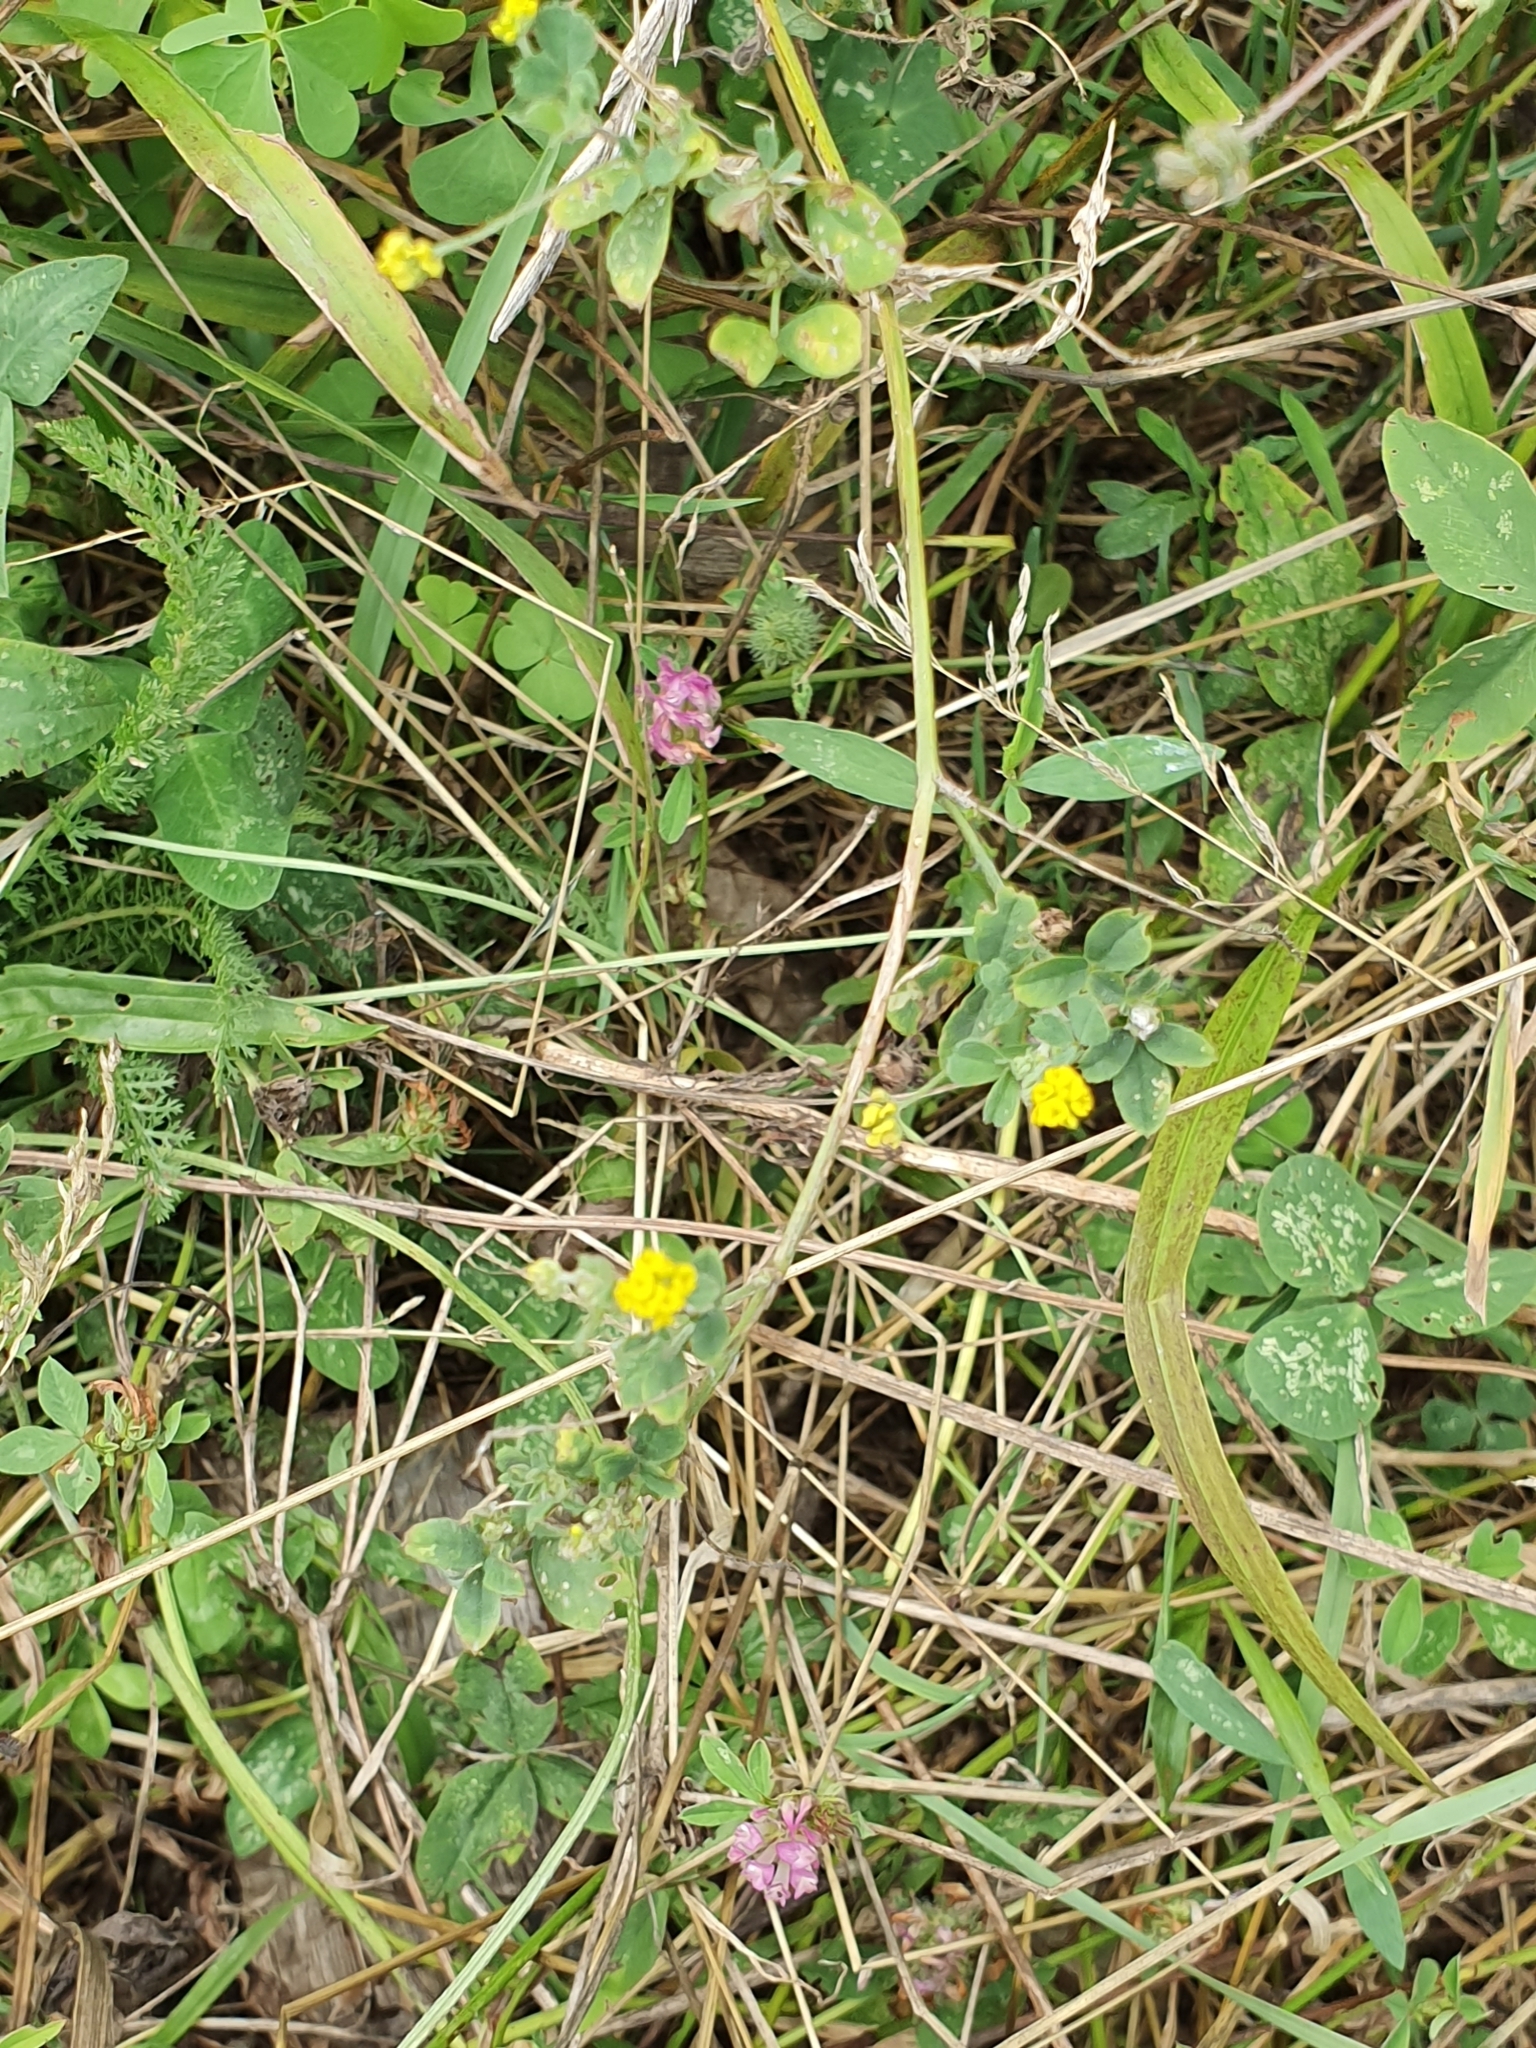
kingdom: Plantae
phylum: Tracheophyta
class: Magnoliopsida
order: Fabales
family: Fabaceae
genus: Medicago
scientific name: Medicago lupulina
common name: Black medick
